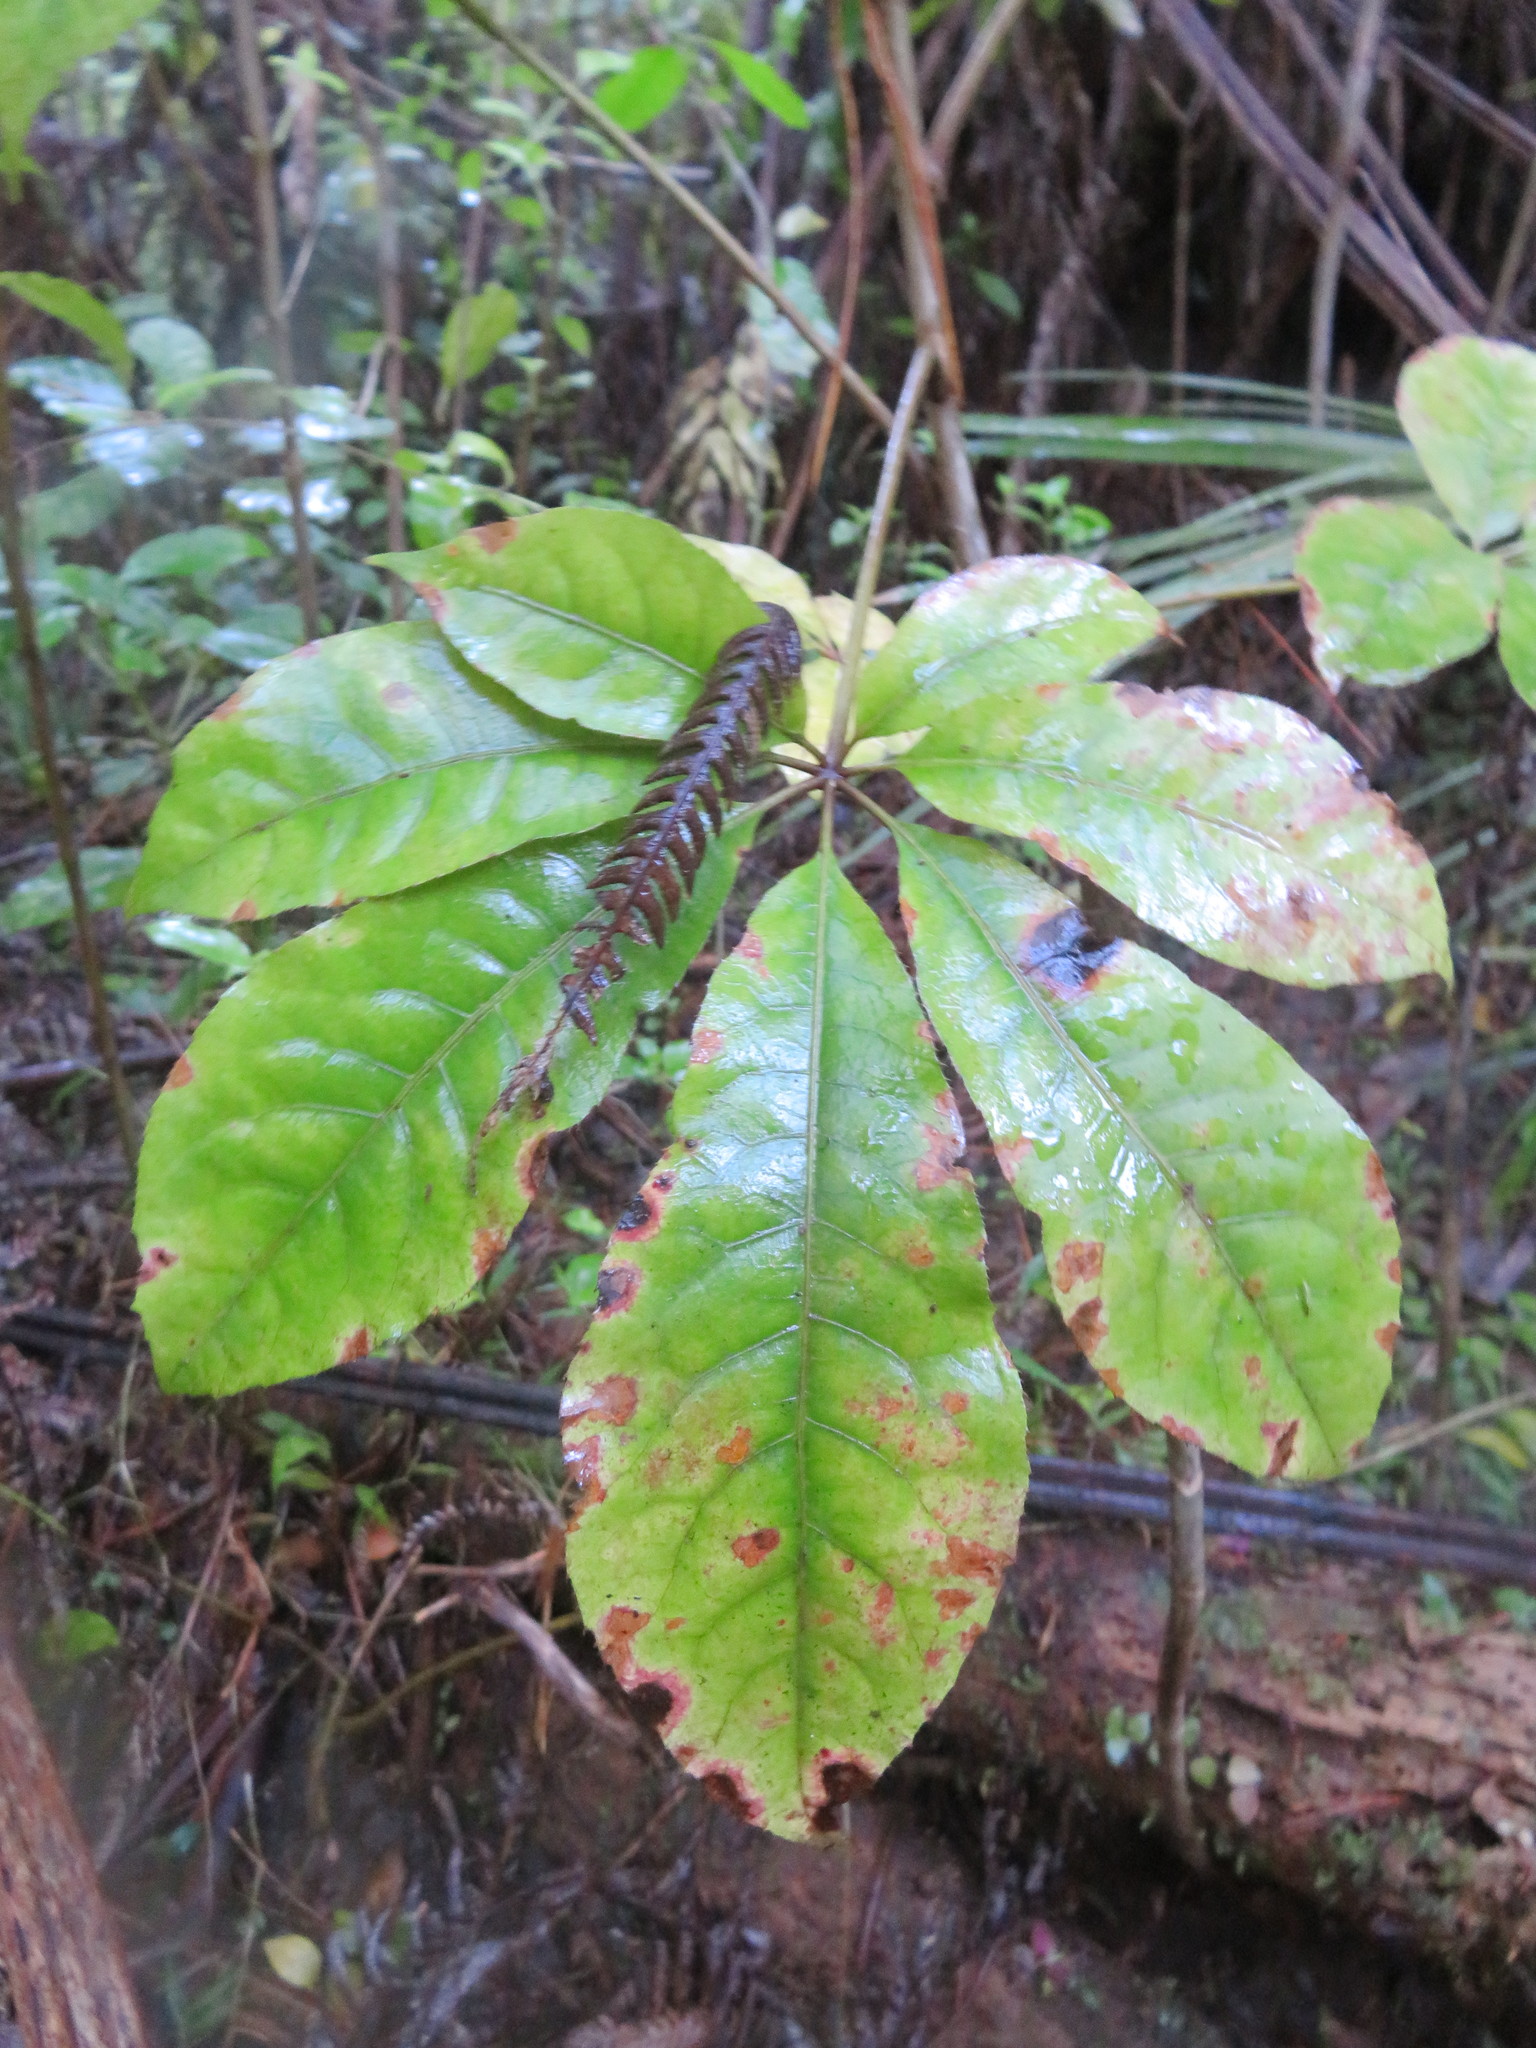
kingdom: Plantae
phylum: Tracheophyta
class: Magnoliopsida
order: Apiales
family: Araliaceae
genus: Schefflera
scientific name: Schefflera digitata
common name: Pate
